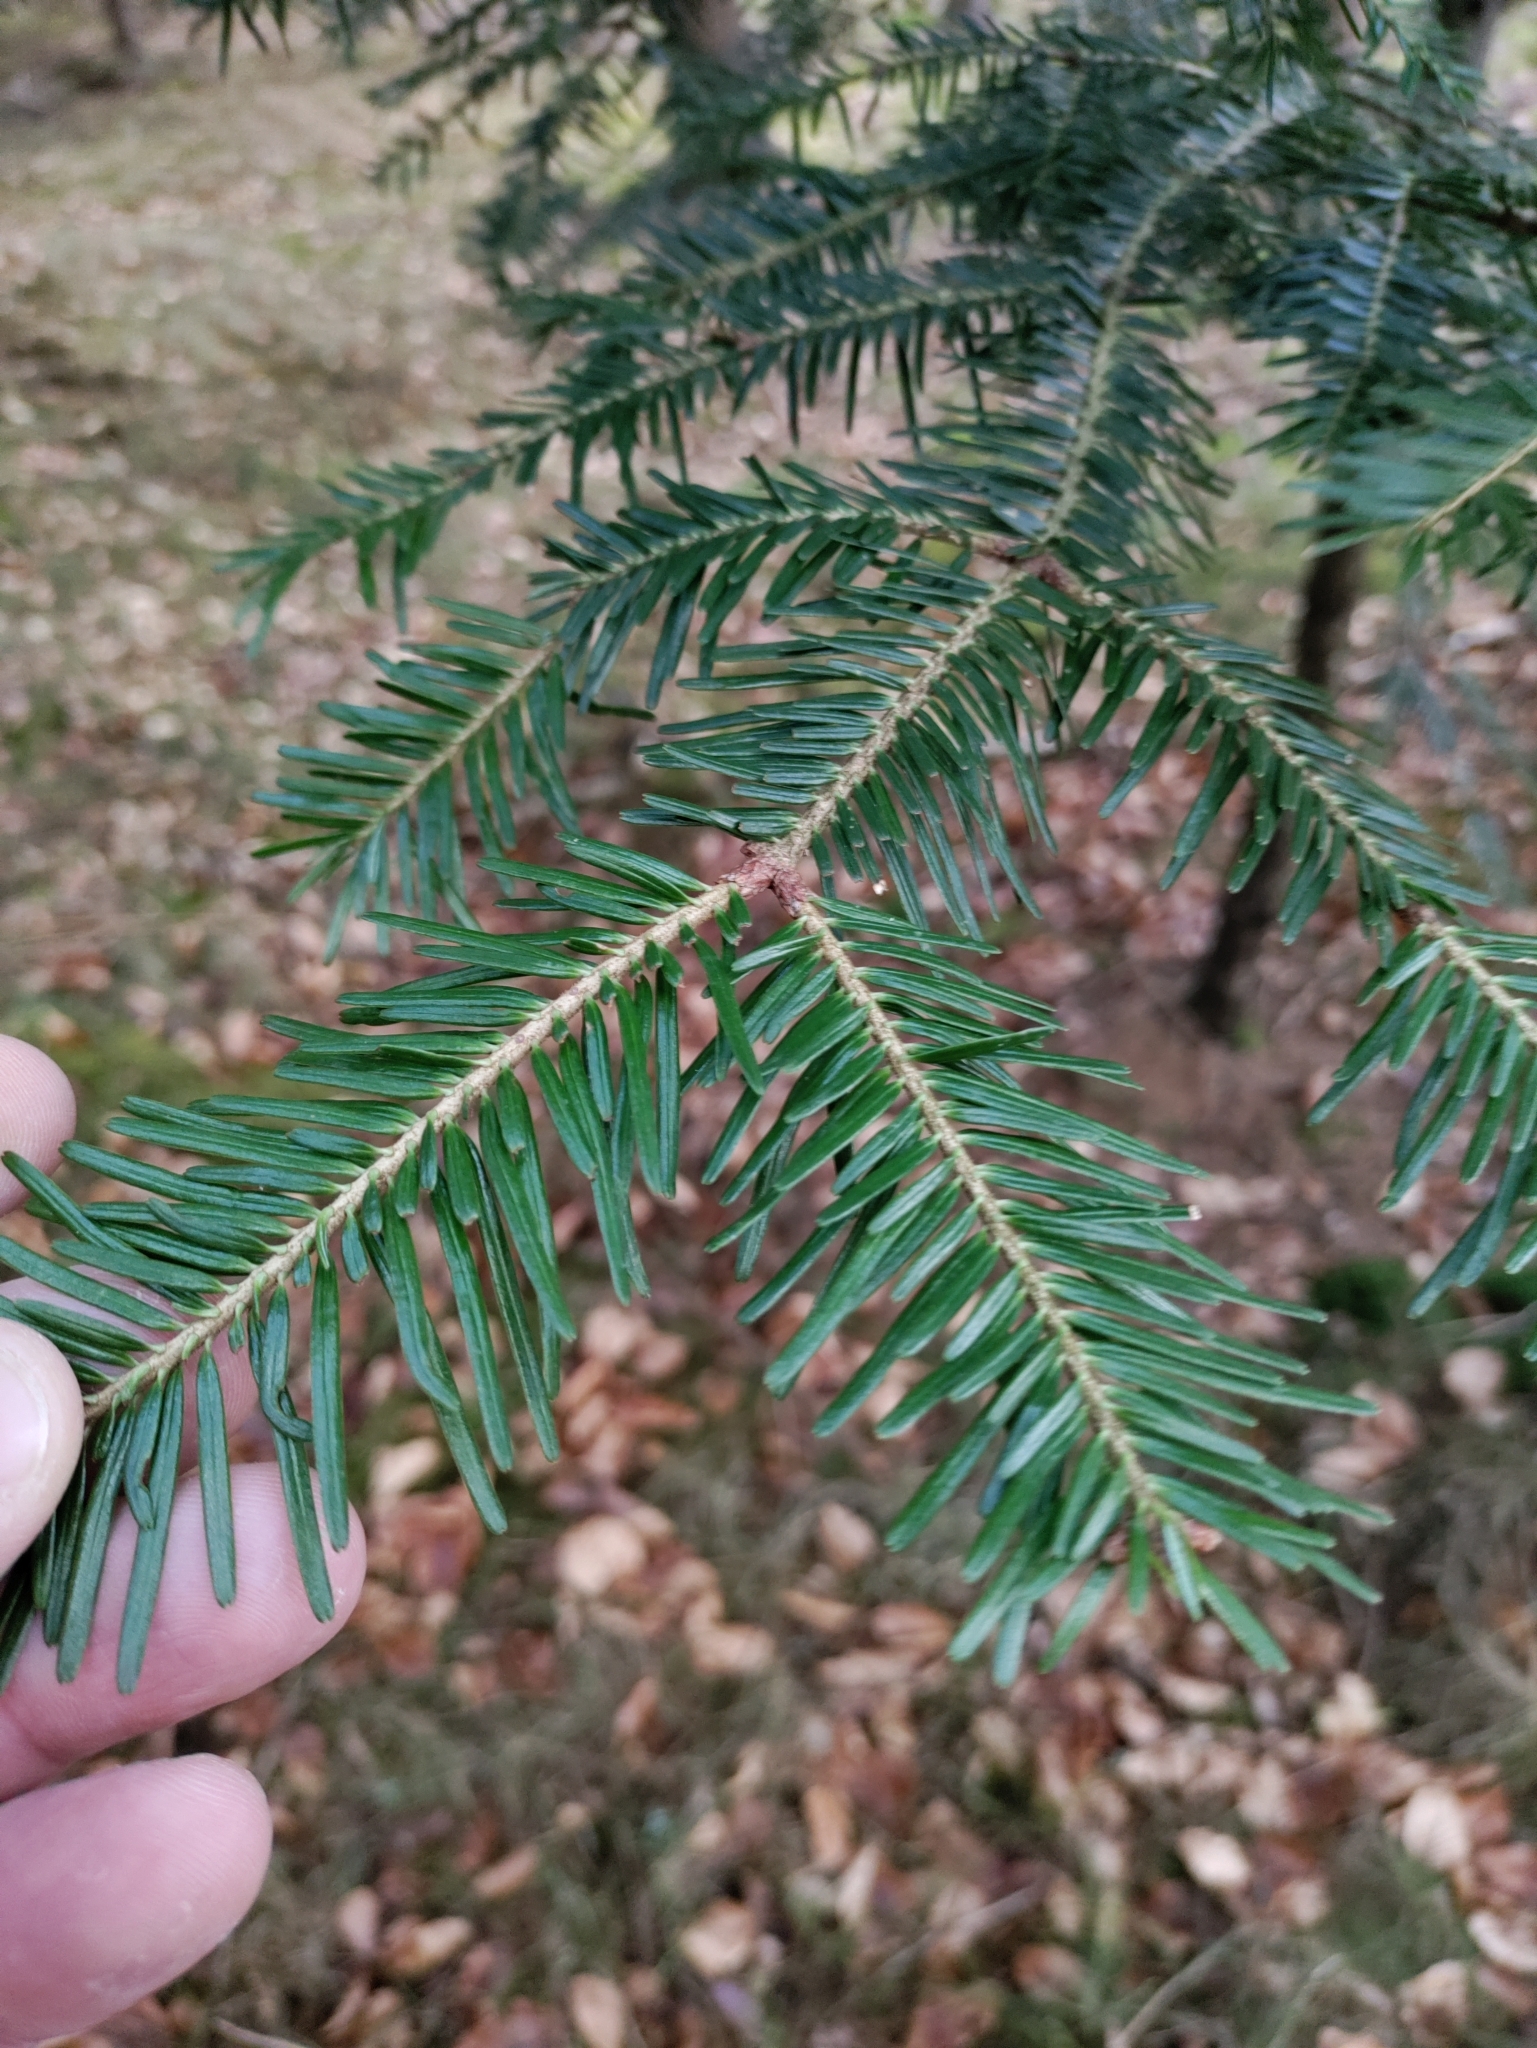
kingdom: Plantae
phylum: Tracheophyta
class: Pinopsida
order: Pinales
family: Pinaceae
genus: Abies
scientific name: Abies alba
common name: Silver fir
